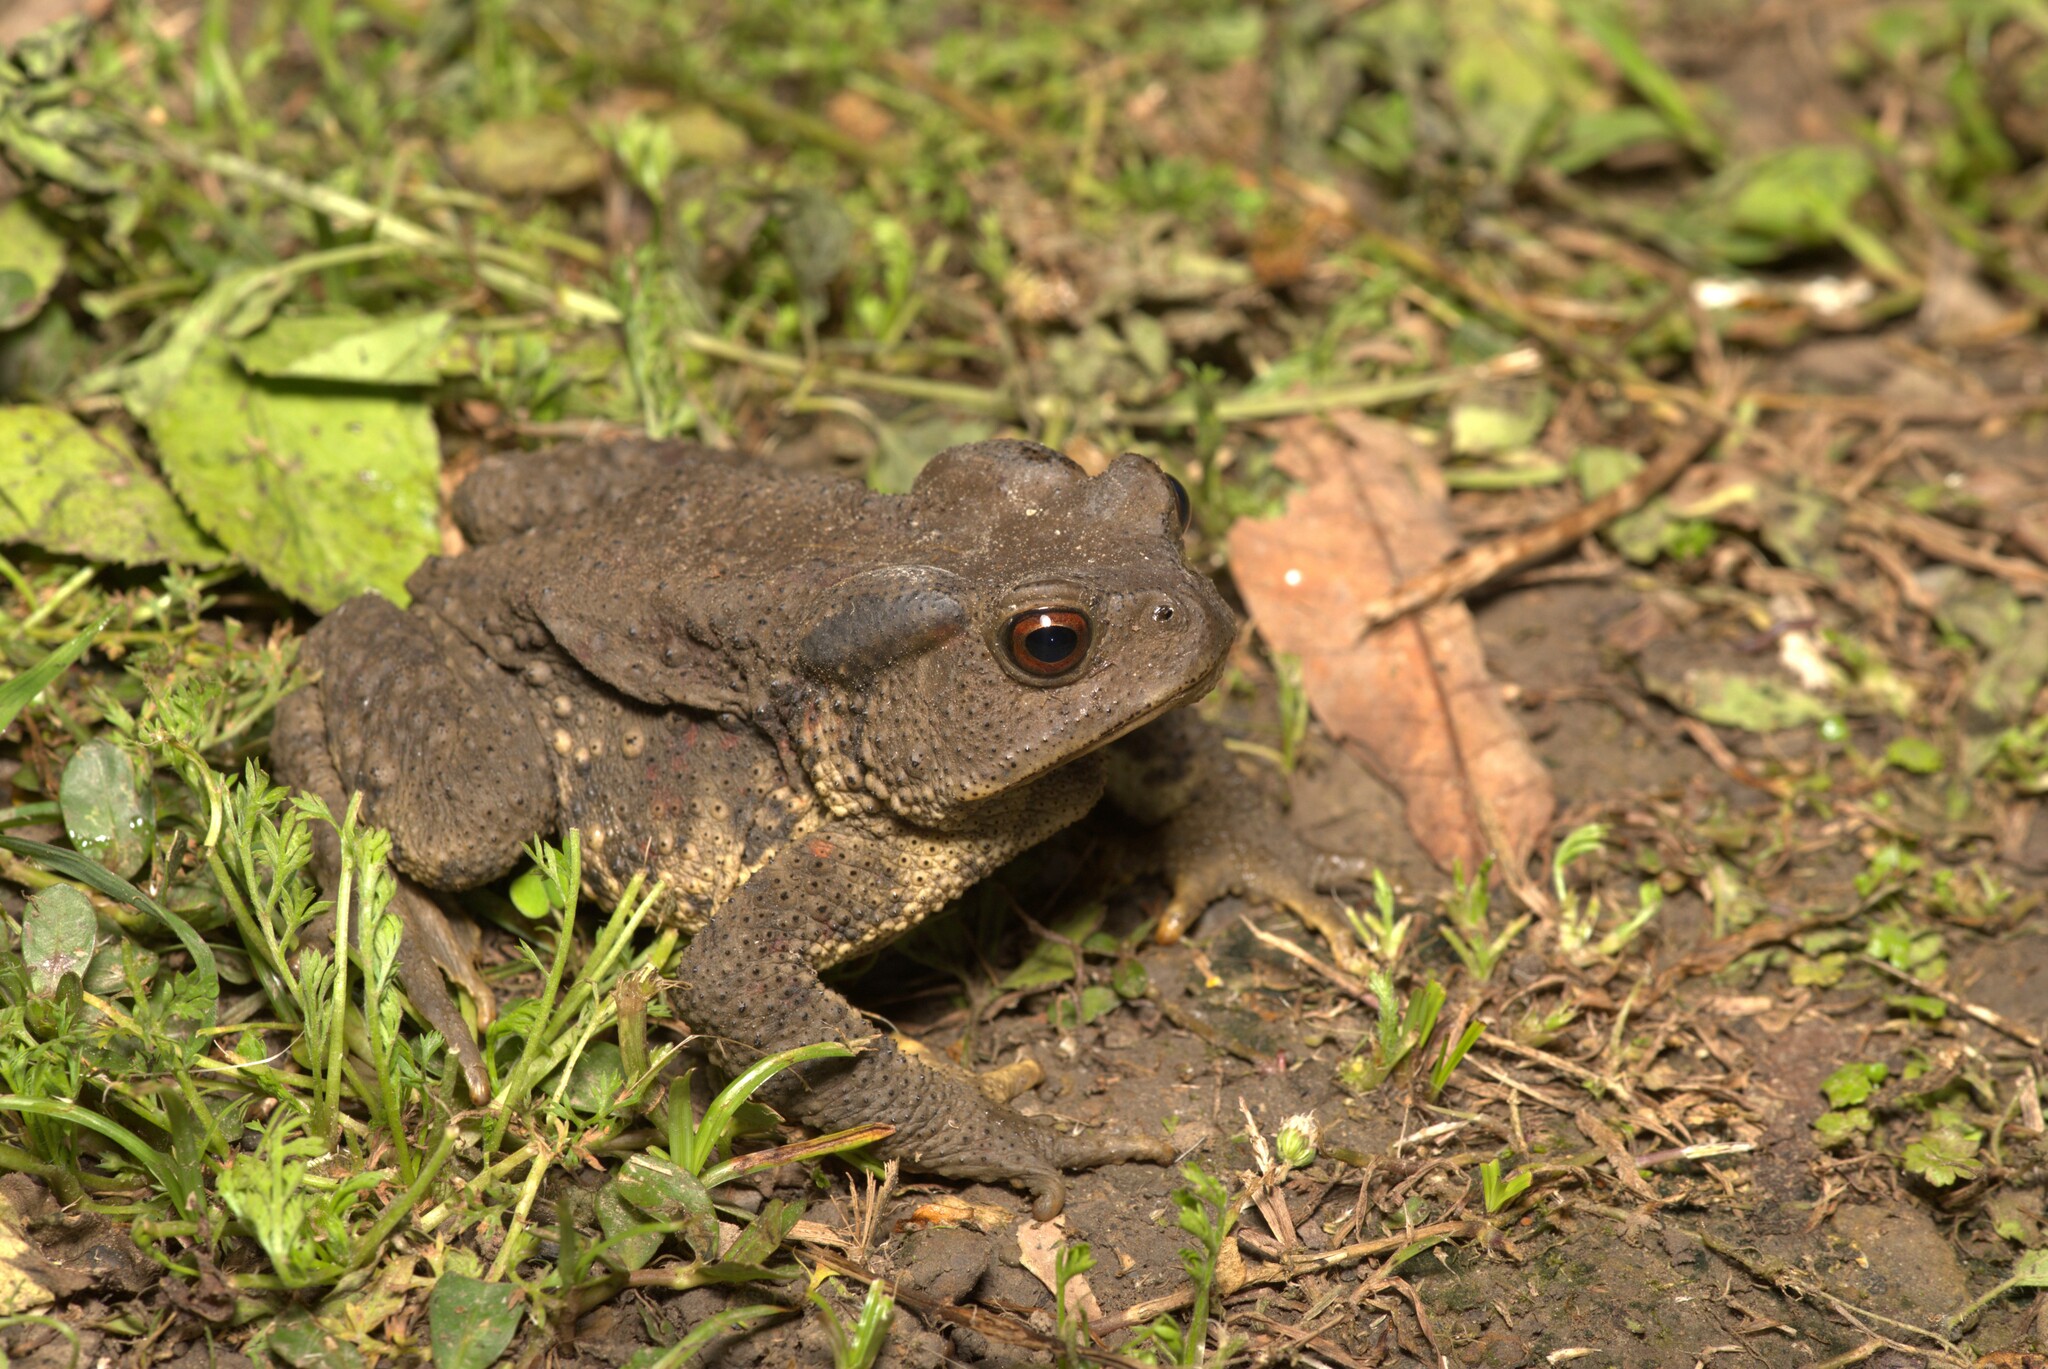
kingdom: Animalia
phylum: Chordata
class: Amphibia
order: Anura
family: Bufonidae
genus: Bufo
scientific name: Bufo bankorensis
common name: Bankor toad
